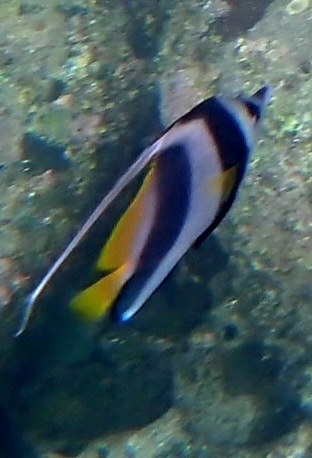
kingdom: Animalia
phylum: Chordata
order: Perciformes
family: Chaetodontidae
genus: Heniochus
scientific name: Heniochus acuminatus
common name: Pennant coralfish
